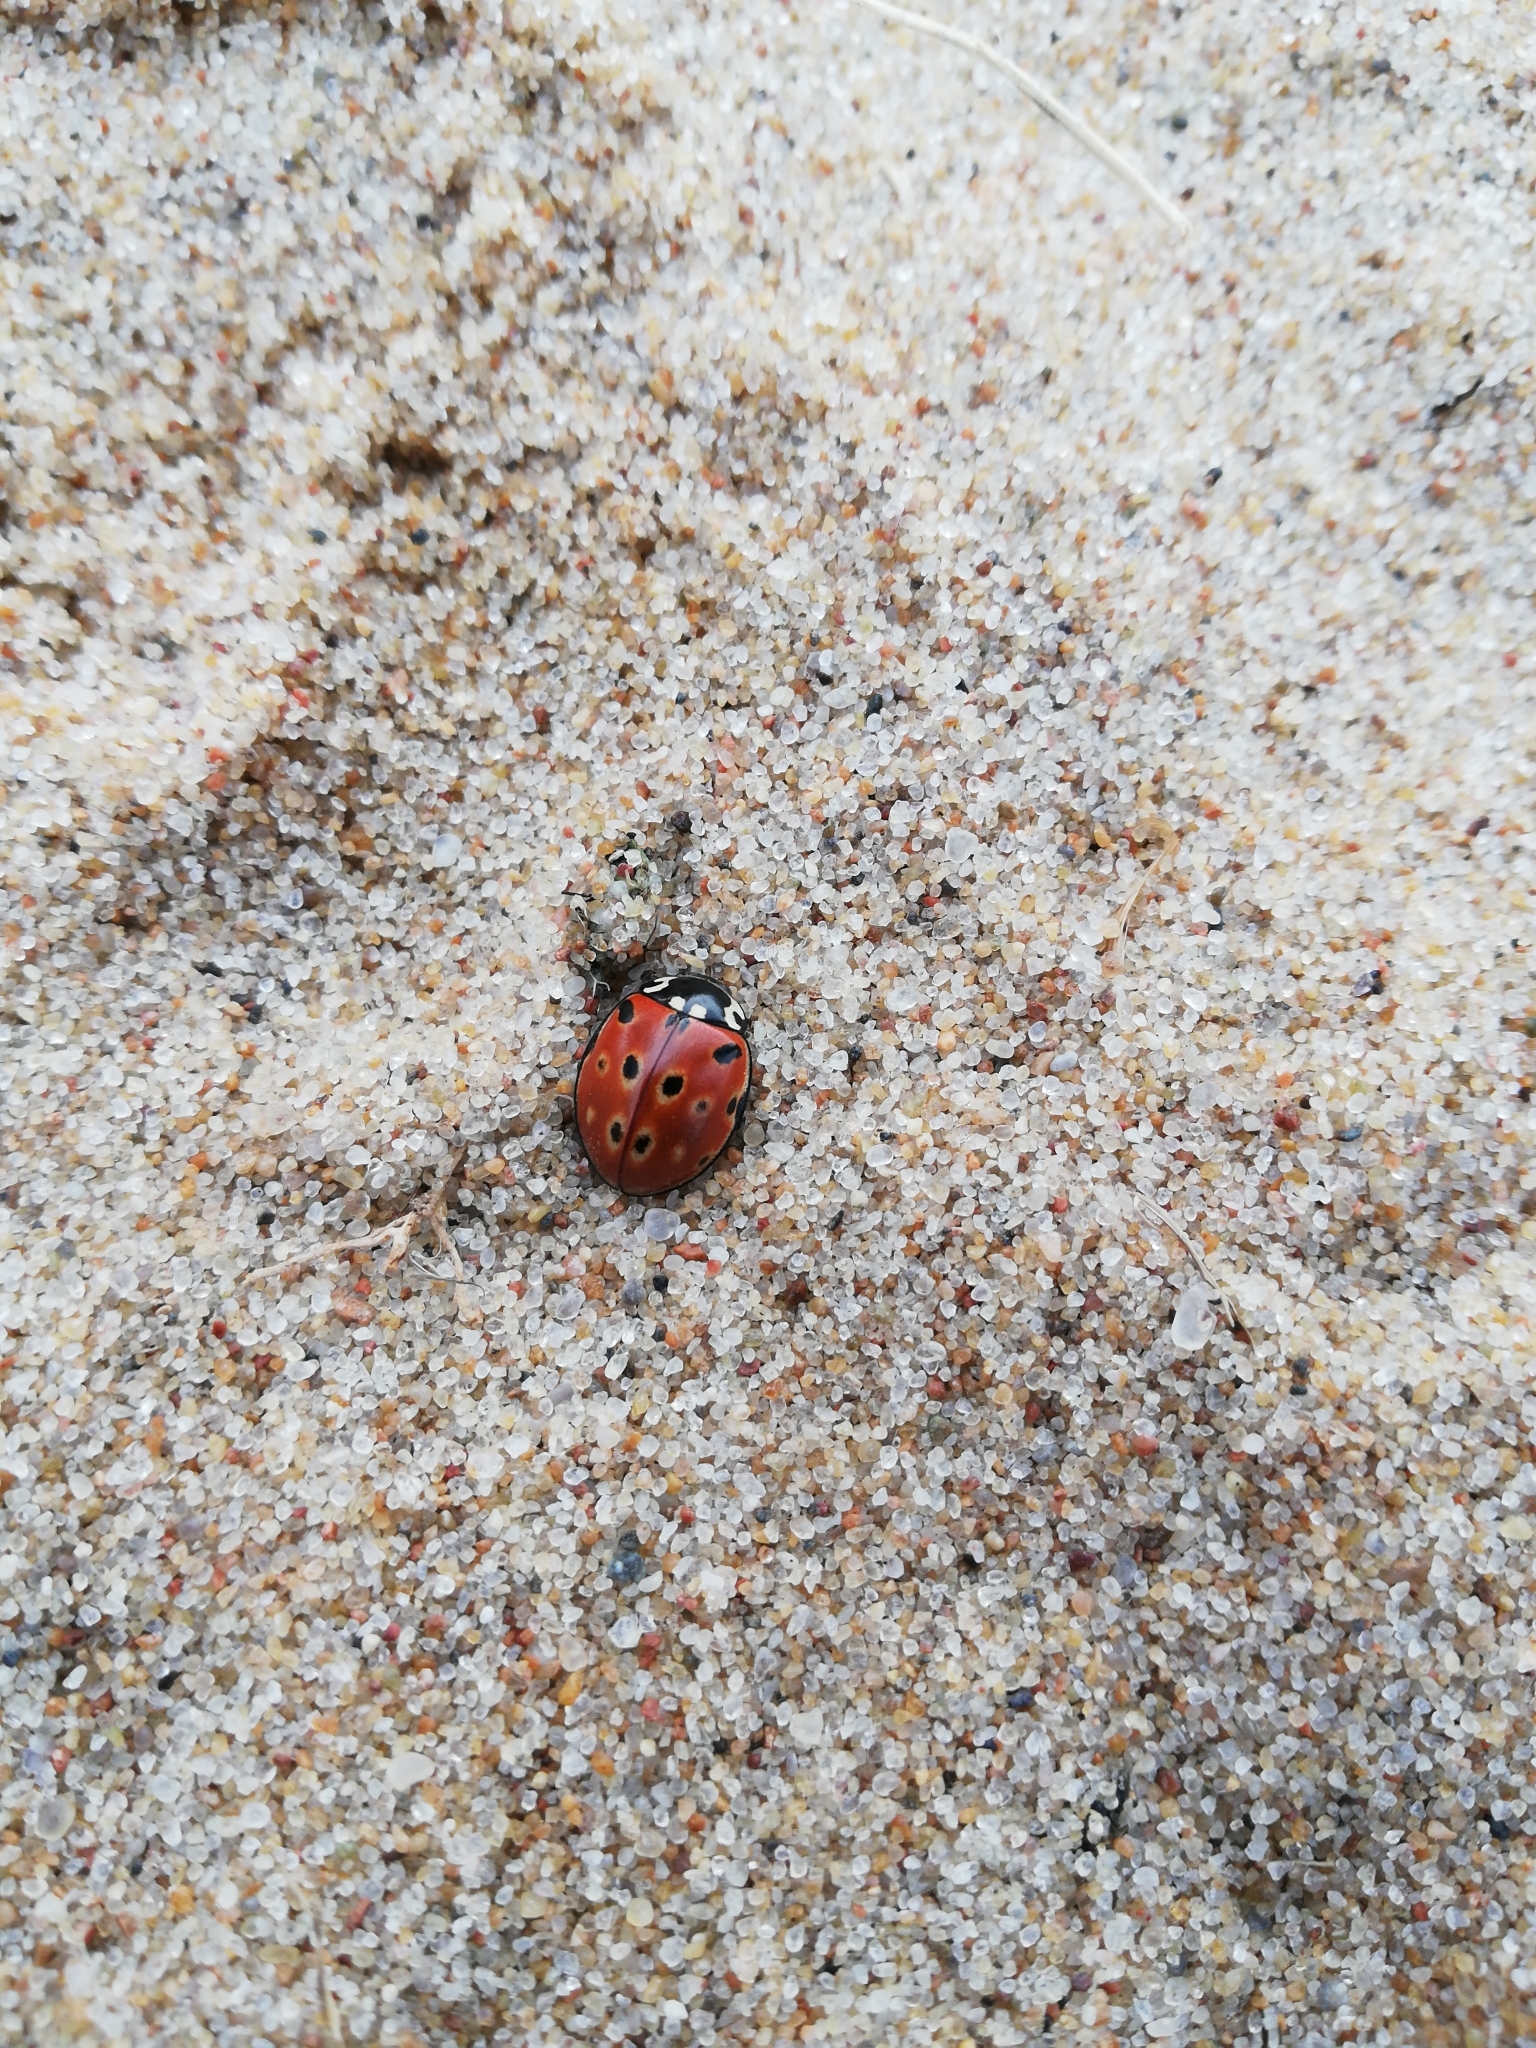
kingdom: Animalia
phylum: Arthropoda
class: Insecta
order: Coleoptera
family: Coccinellidae
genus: Anatis
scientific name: Anatis ocellata
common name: Eyed ladybird
